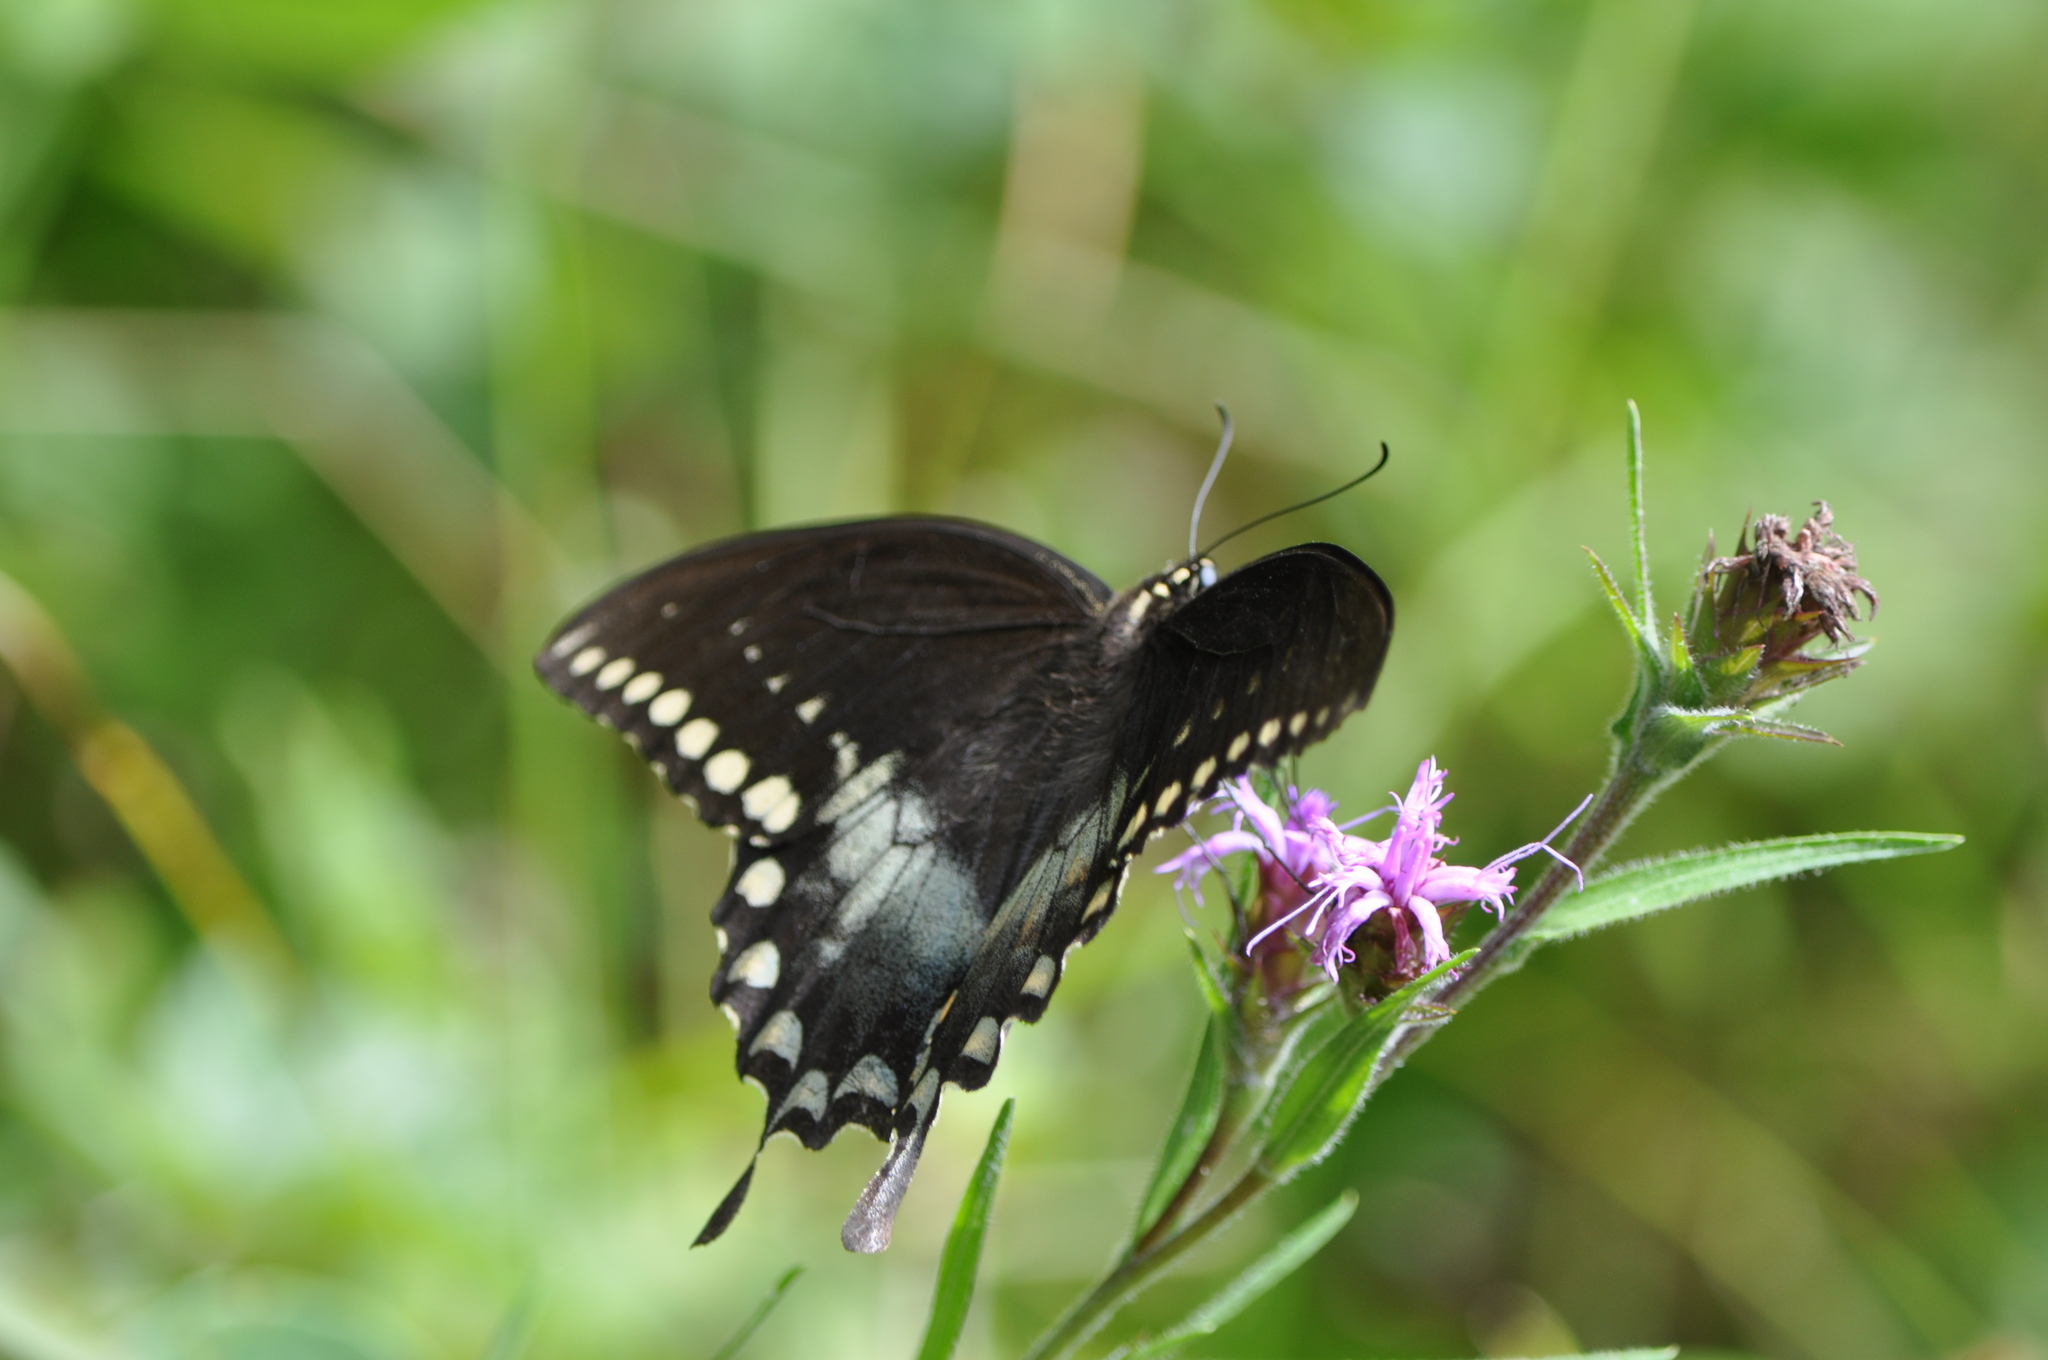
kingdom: Animalia
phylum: Arthropoda
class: Insecta
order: Lepidoptera
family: Papilionidae
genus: Papilio
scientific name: Papilio troilus
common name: Spicebush swallowtail
